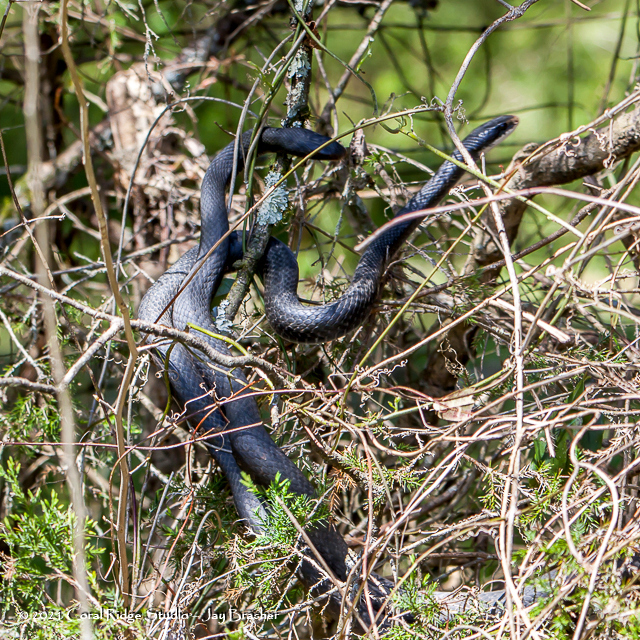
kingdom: Animalia
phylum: Chordata
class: Squamata
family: Colubridae
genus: Coluber
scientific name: Coluber constrictor
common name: Eastern racer
